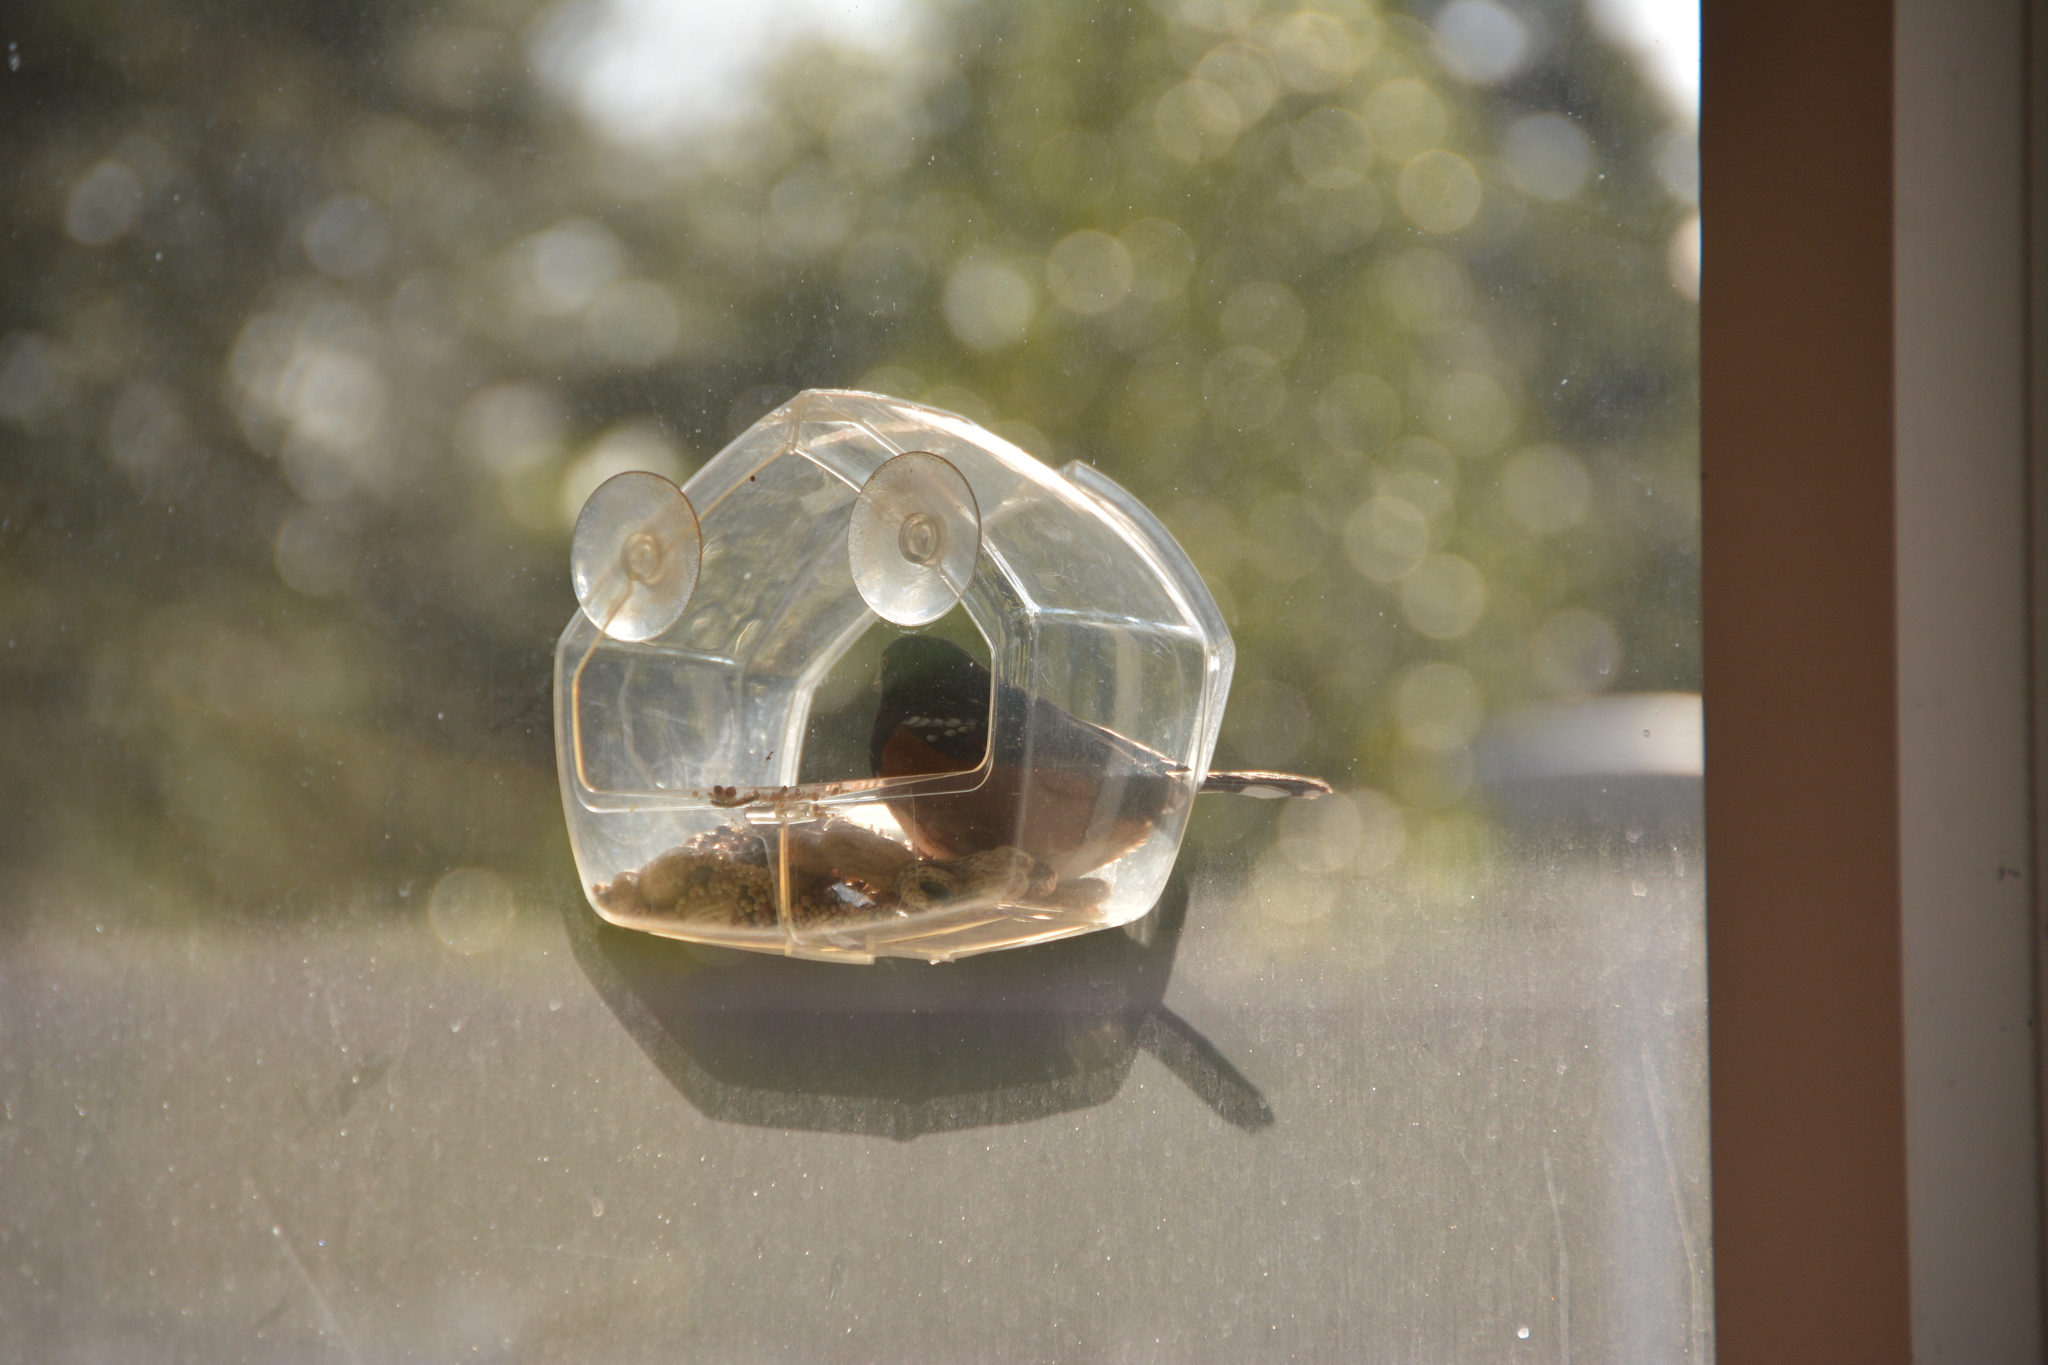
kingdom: Animalia
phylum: Chordata
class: Aves
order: Passeriformes
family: Passerellidae
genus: Pipilo
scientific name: Pipilo maculatus
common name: Spotted towhee
